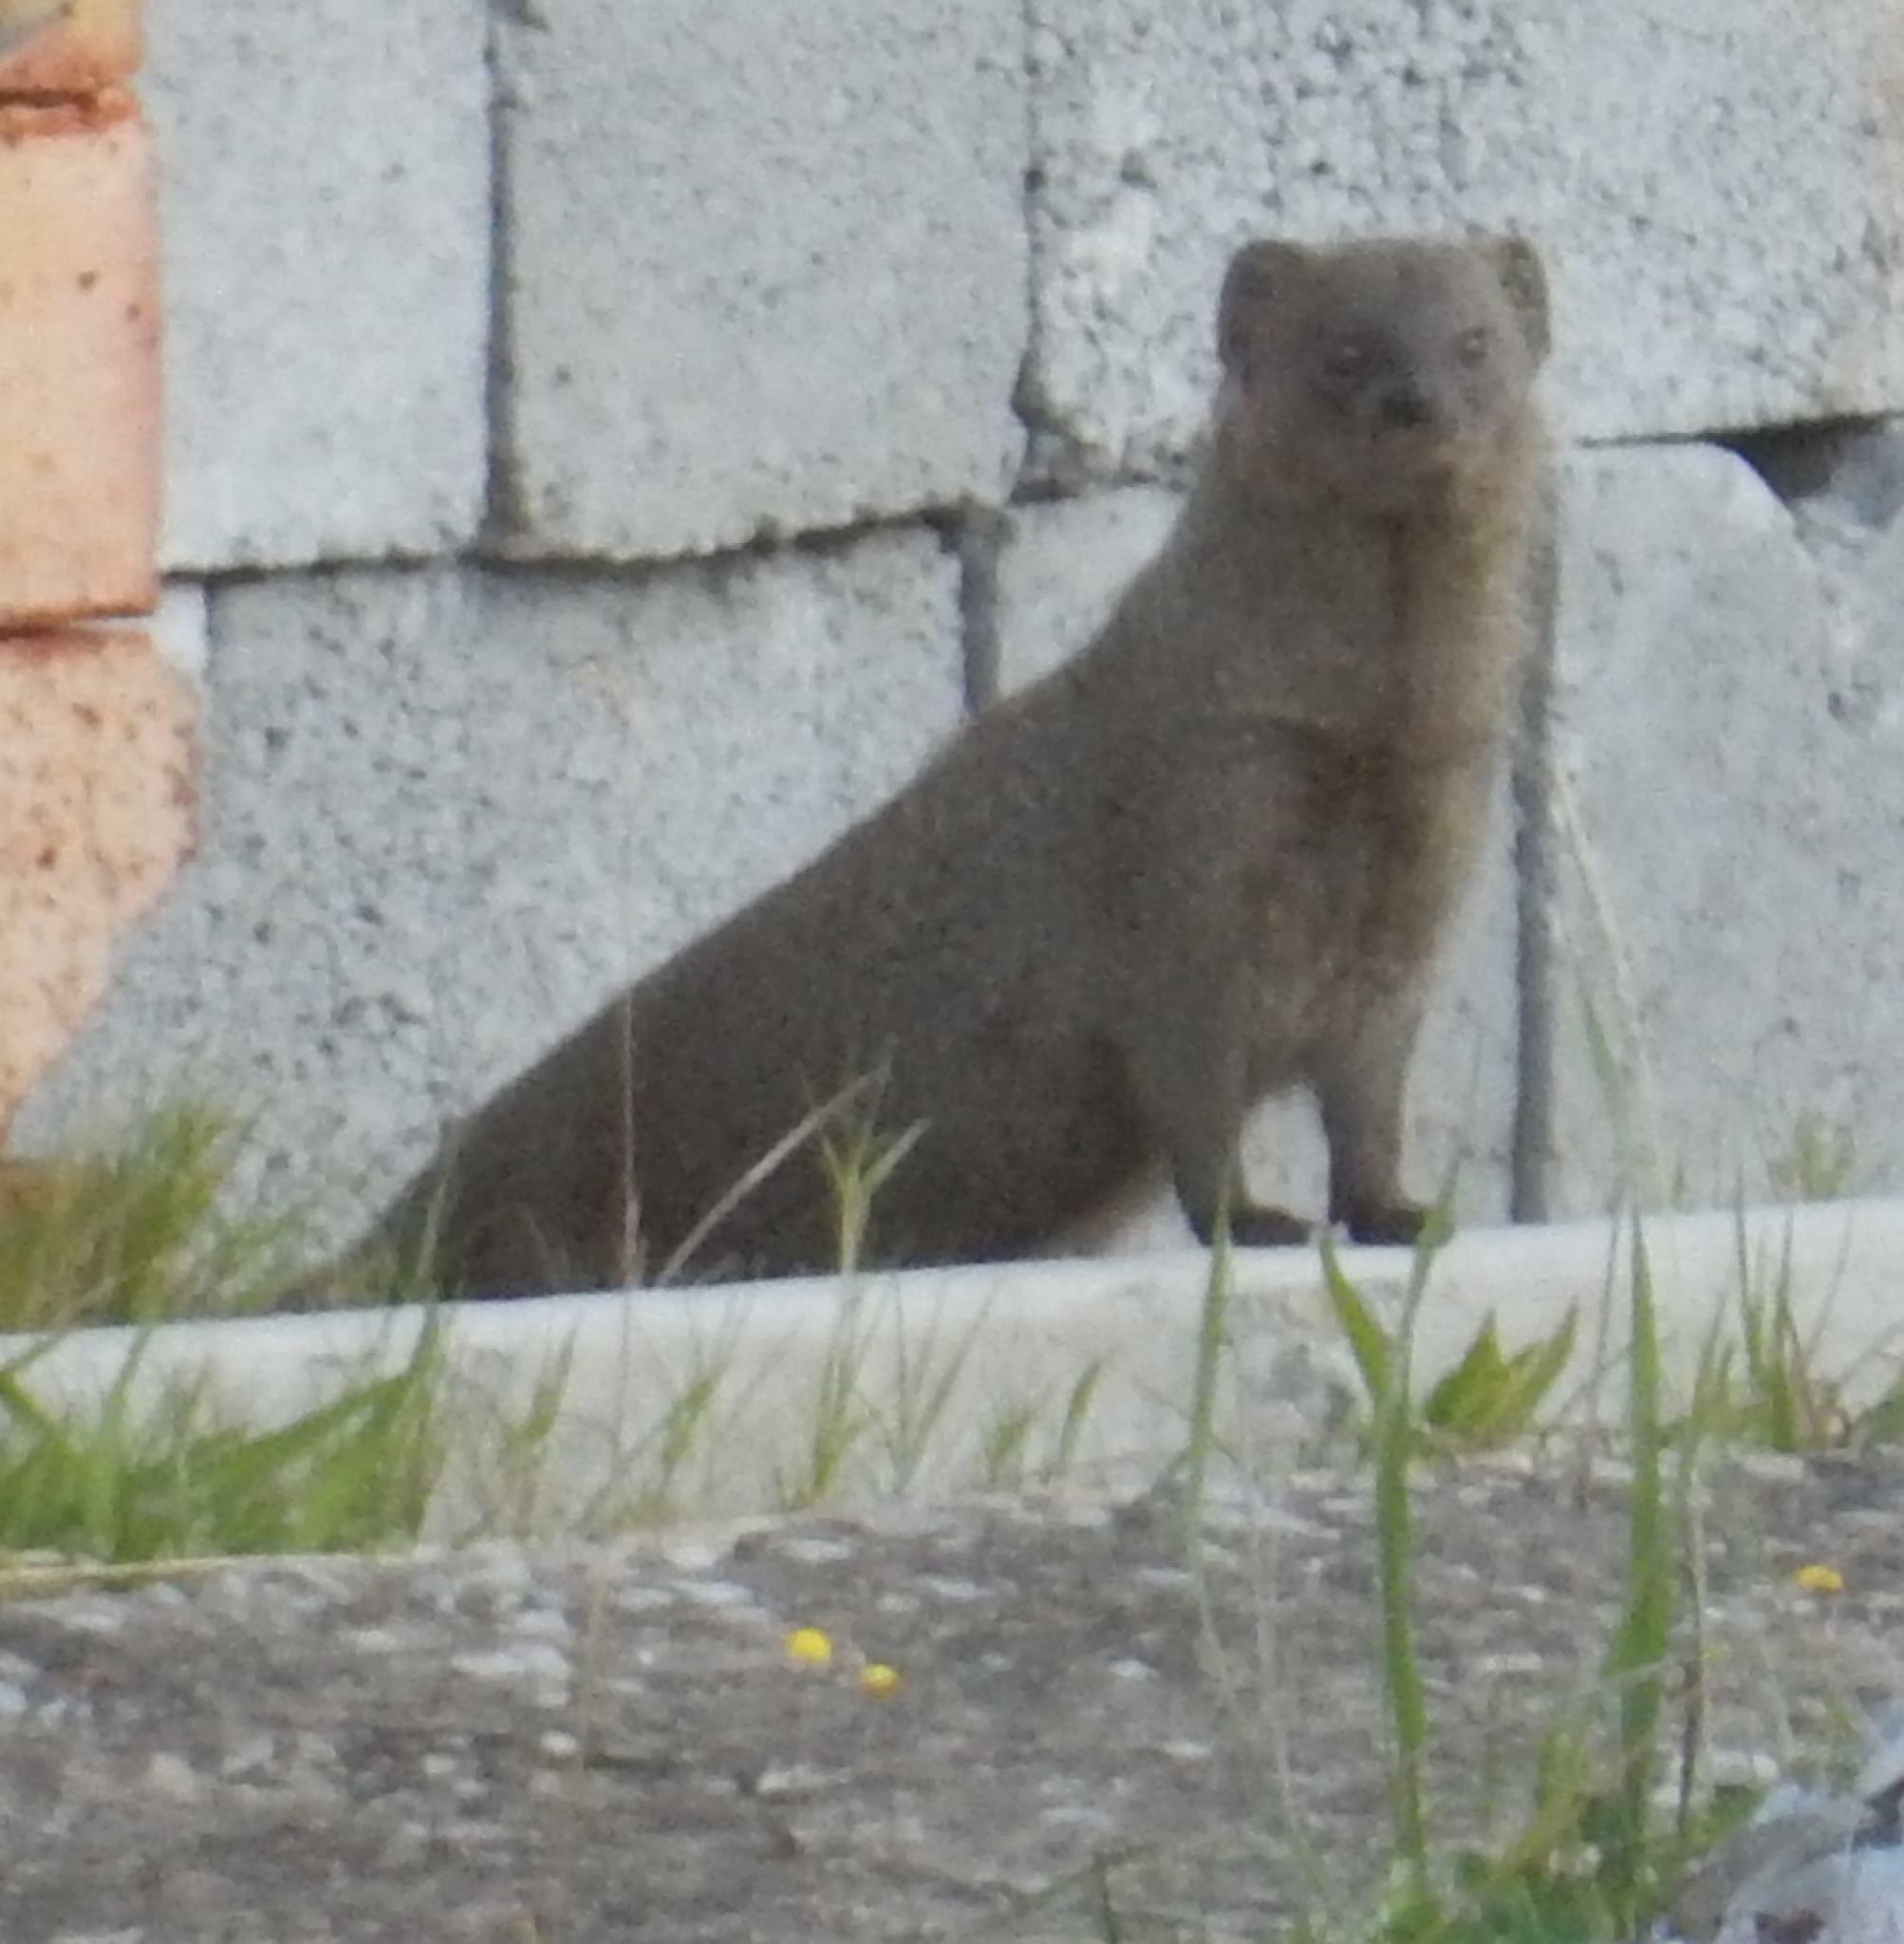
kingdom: Animalia
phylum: Chordata
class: Mammalia
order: Carnivora
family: Herpestidae
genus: Galerella
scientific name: Galerella pulverulenta
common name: Cape gray mongoose
